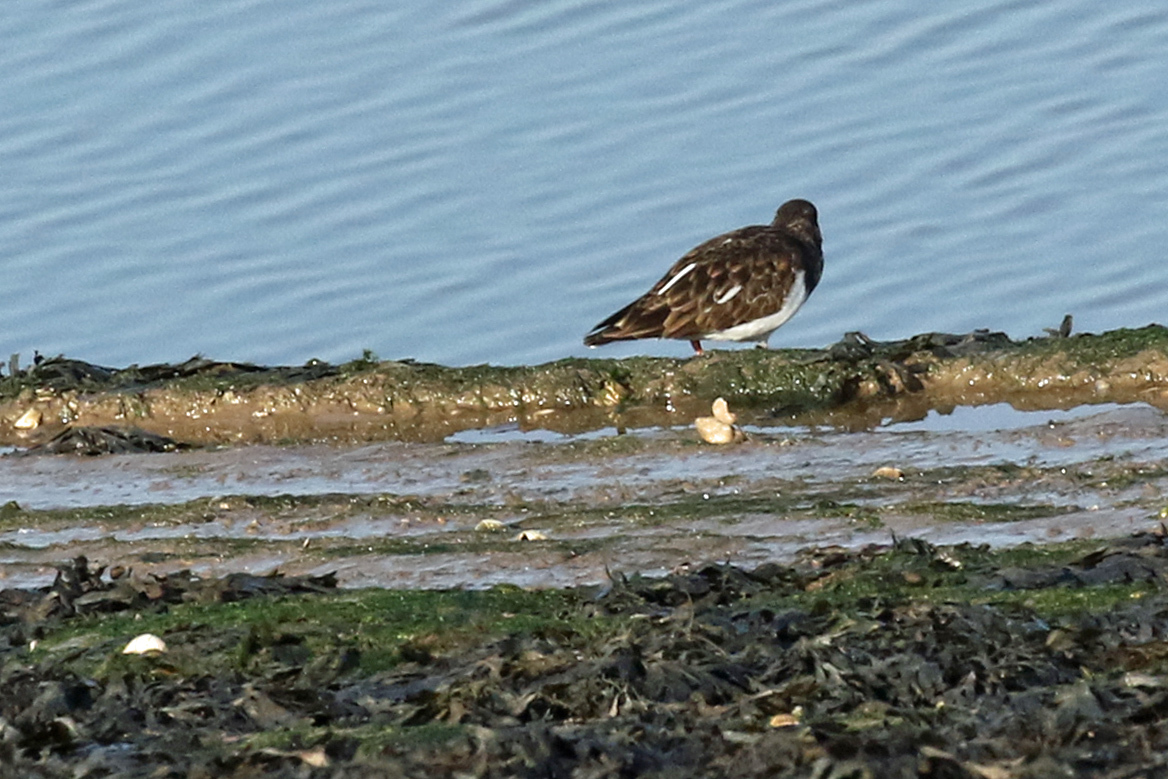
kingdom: Animalia
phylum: Chordata
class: Aves
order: Charadriiformes
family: Scolopacidae
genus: Arenaria
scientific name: Arenaria interpres
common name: Ruddy turnstone
